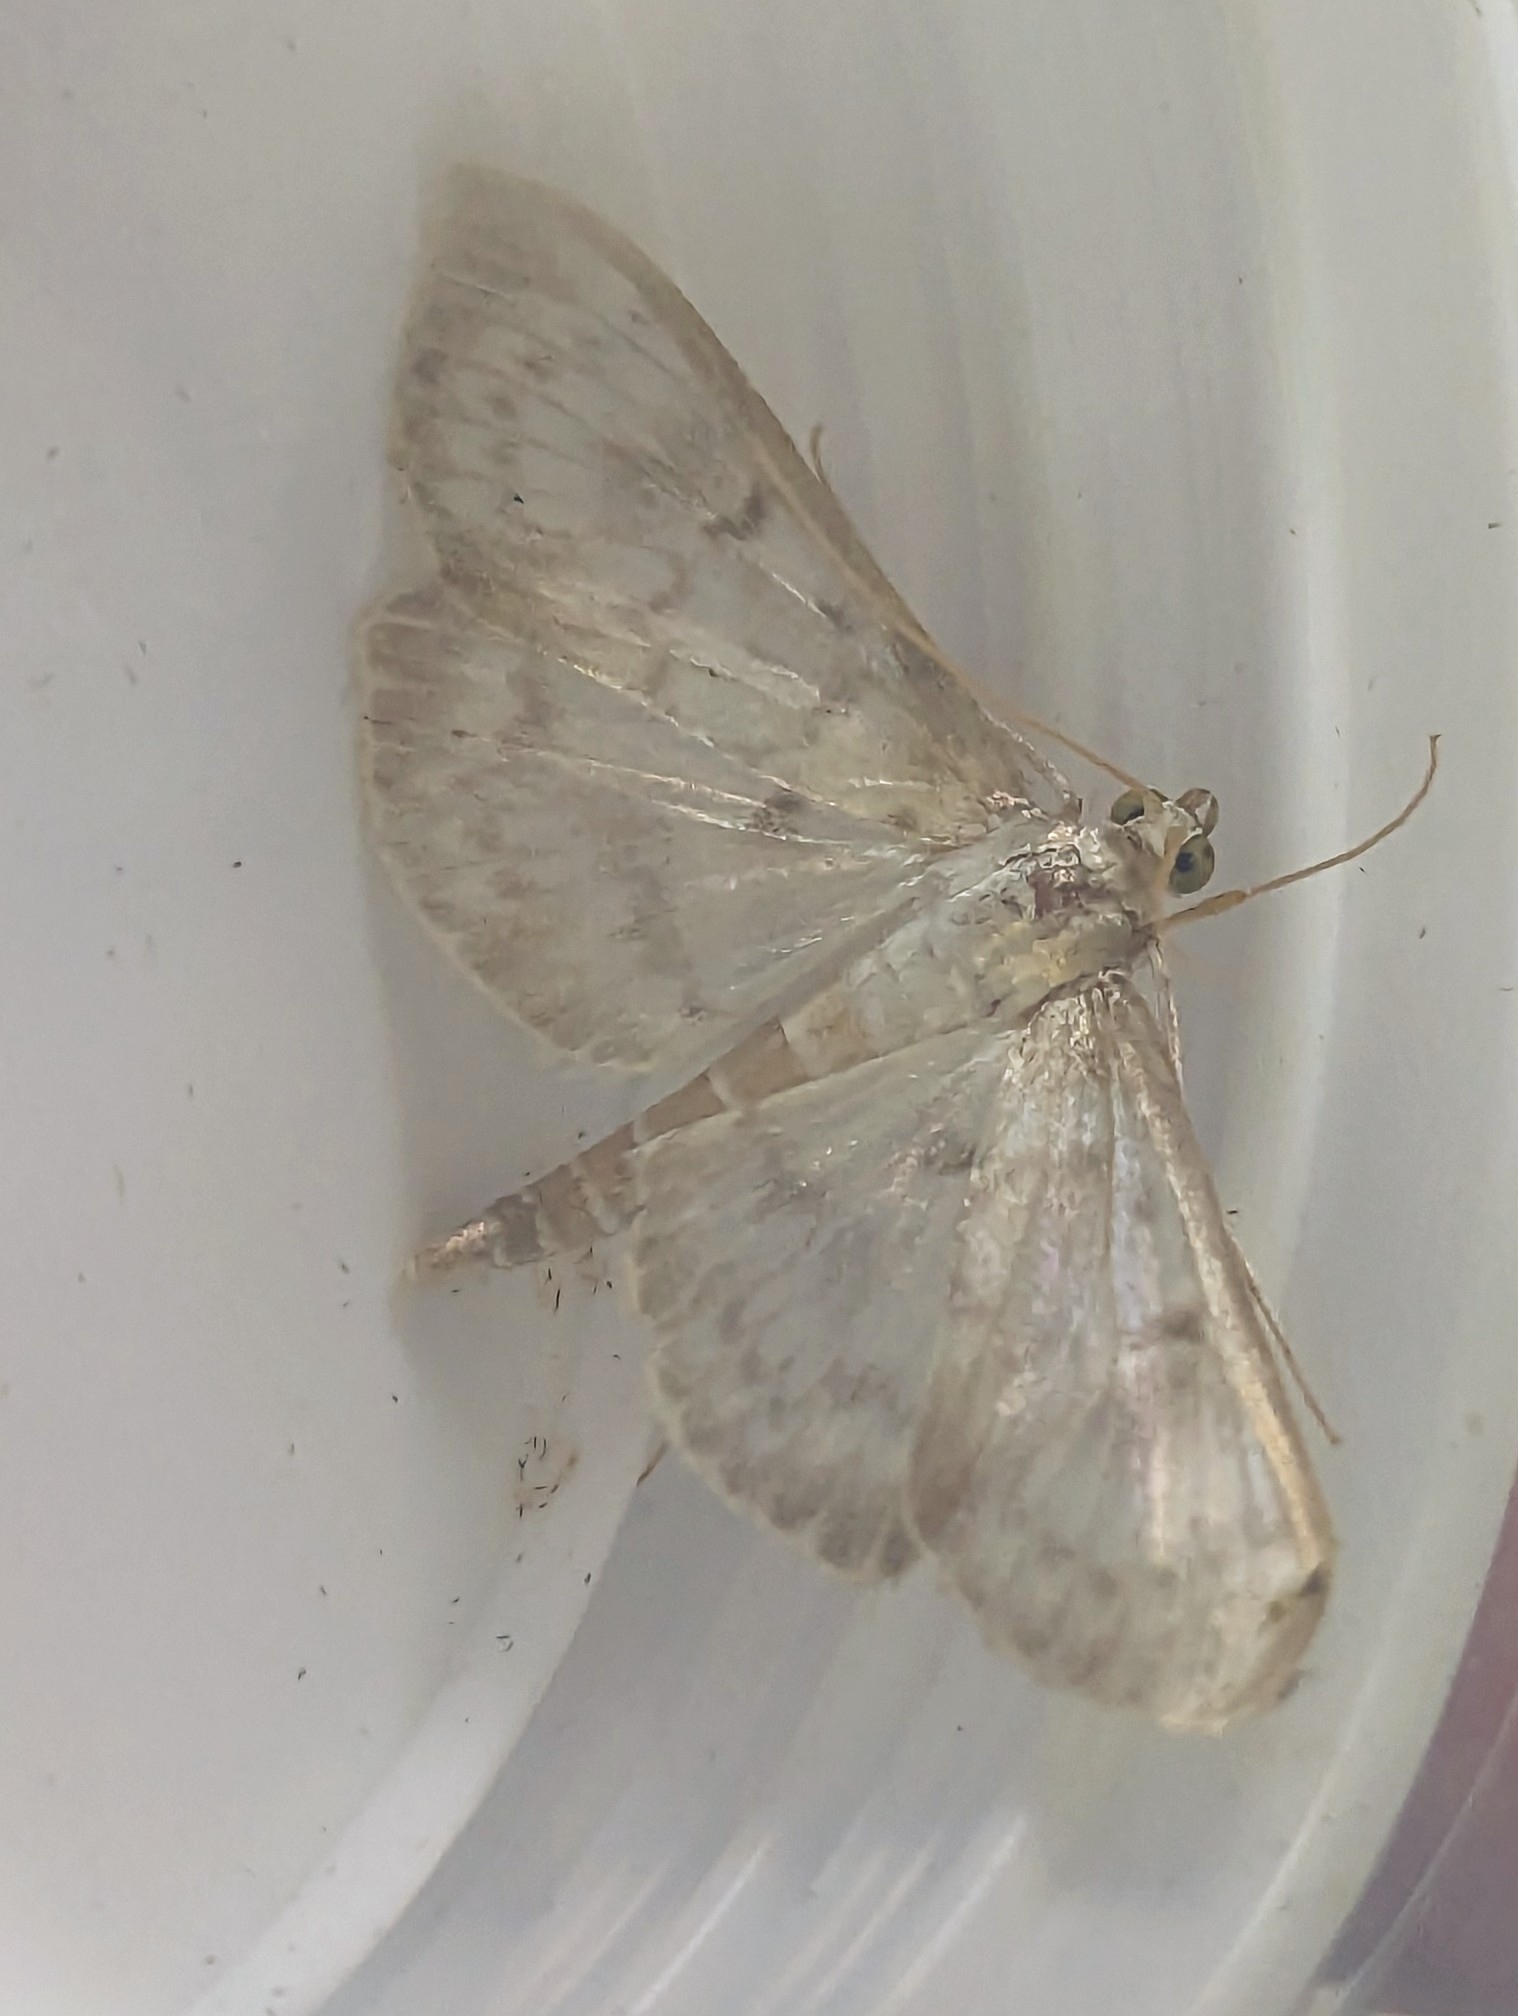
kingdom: Animalia
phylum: Arthropoda
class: Insecta
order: Lepidoptera
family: Crambidae
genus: Patania
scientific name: Patania ruralis
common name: Mother of pearl
